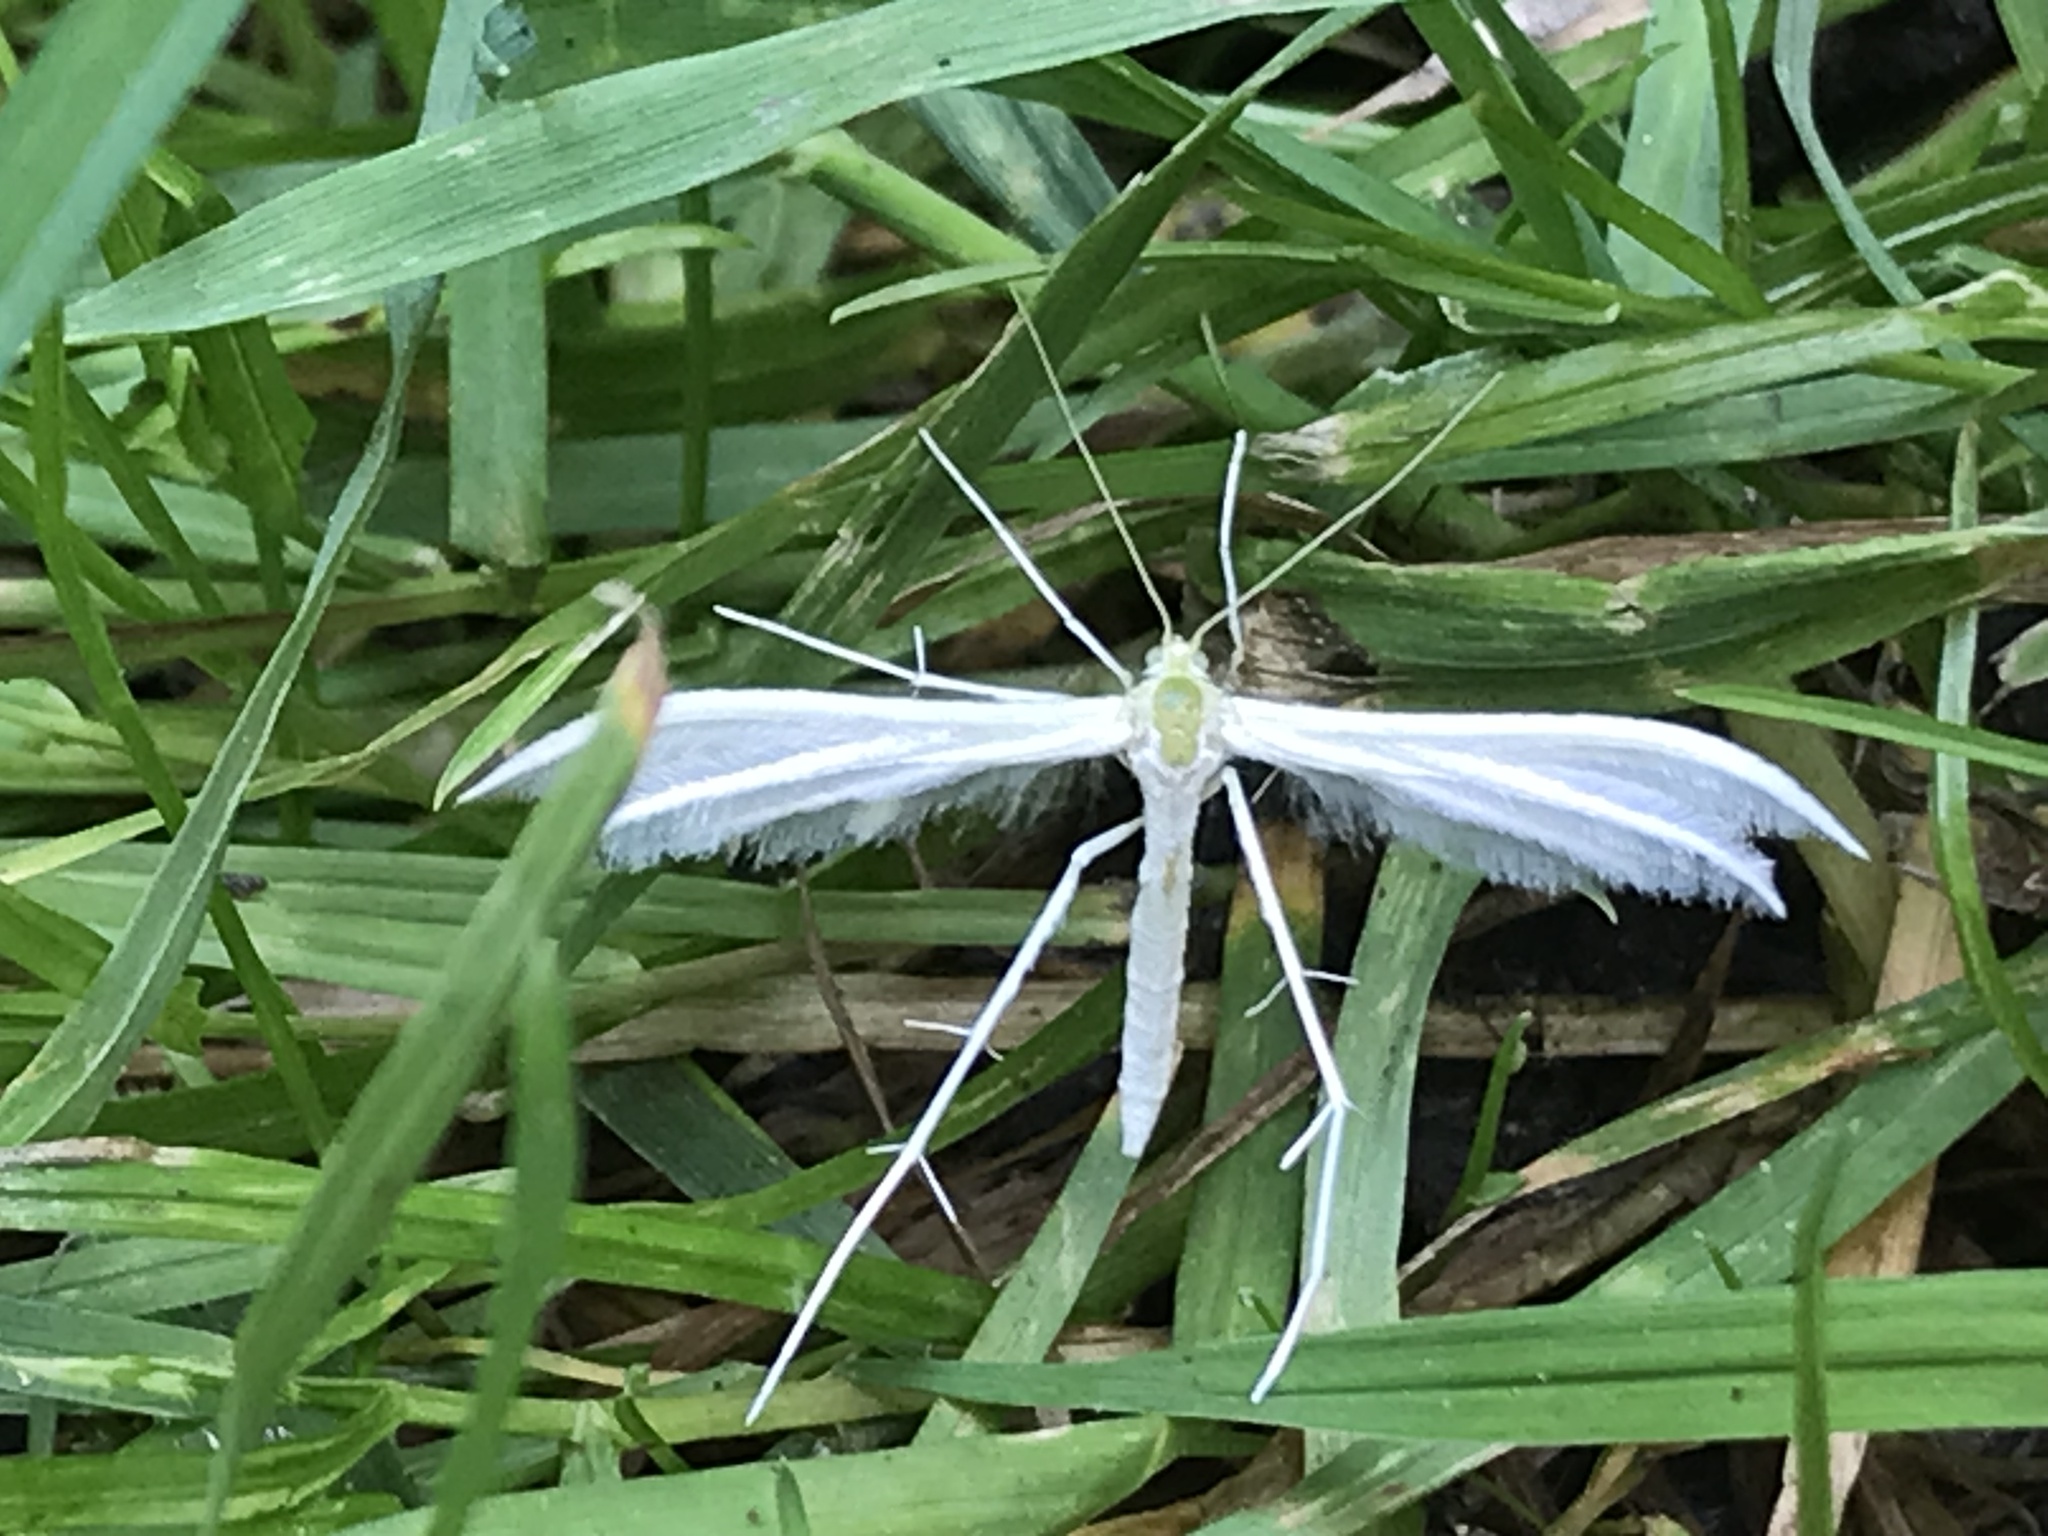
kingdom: Animalia
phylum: Arthropoda
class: Insecta
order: Lepidoptera
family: Pterophoridae
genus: Pterophorus
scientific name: Pterophorus pentadactyla
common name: White plume moth
